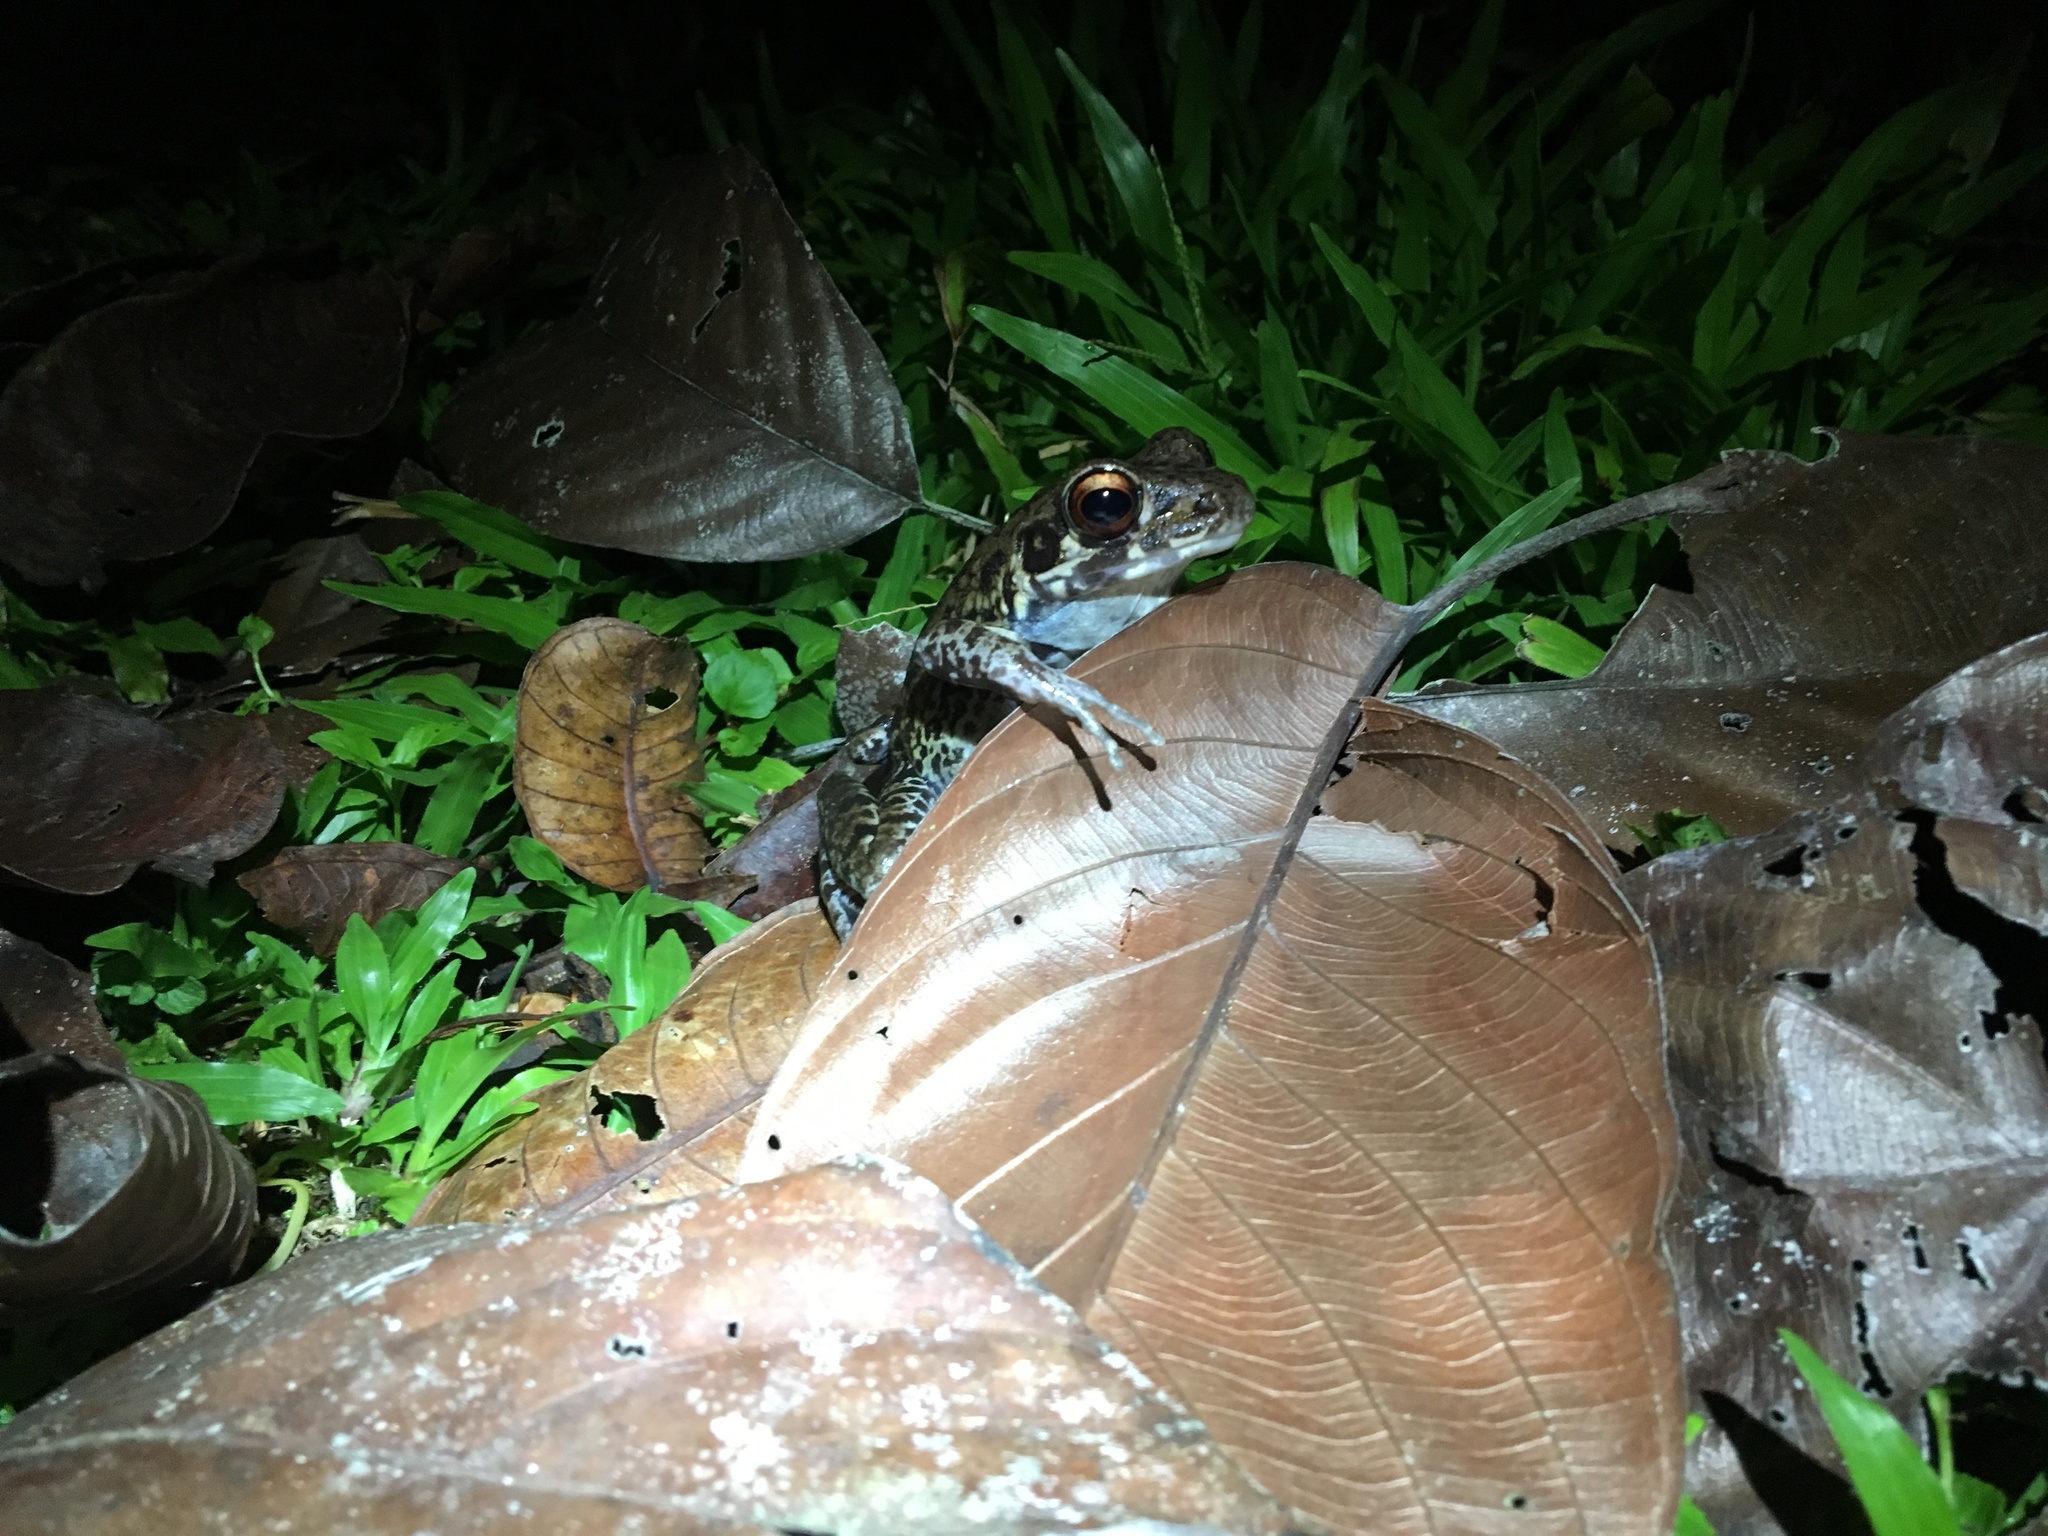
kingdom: Animalia
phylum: Chordata
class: Amphibia
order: Anura
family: Ranidae
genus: Pulchrana
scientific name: Pulchrana glandulosa
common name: Rough-sided frog
